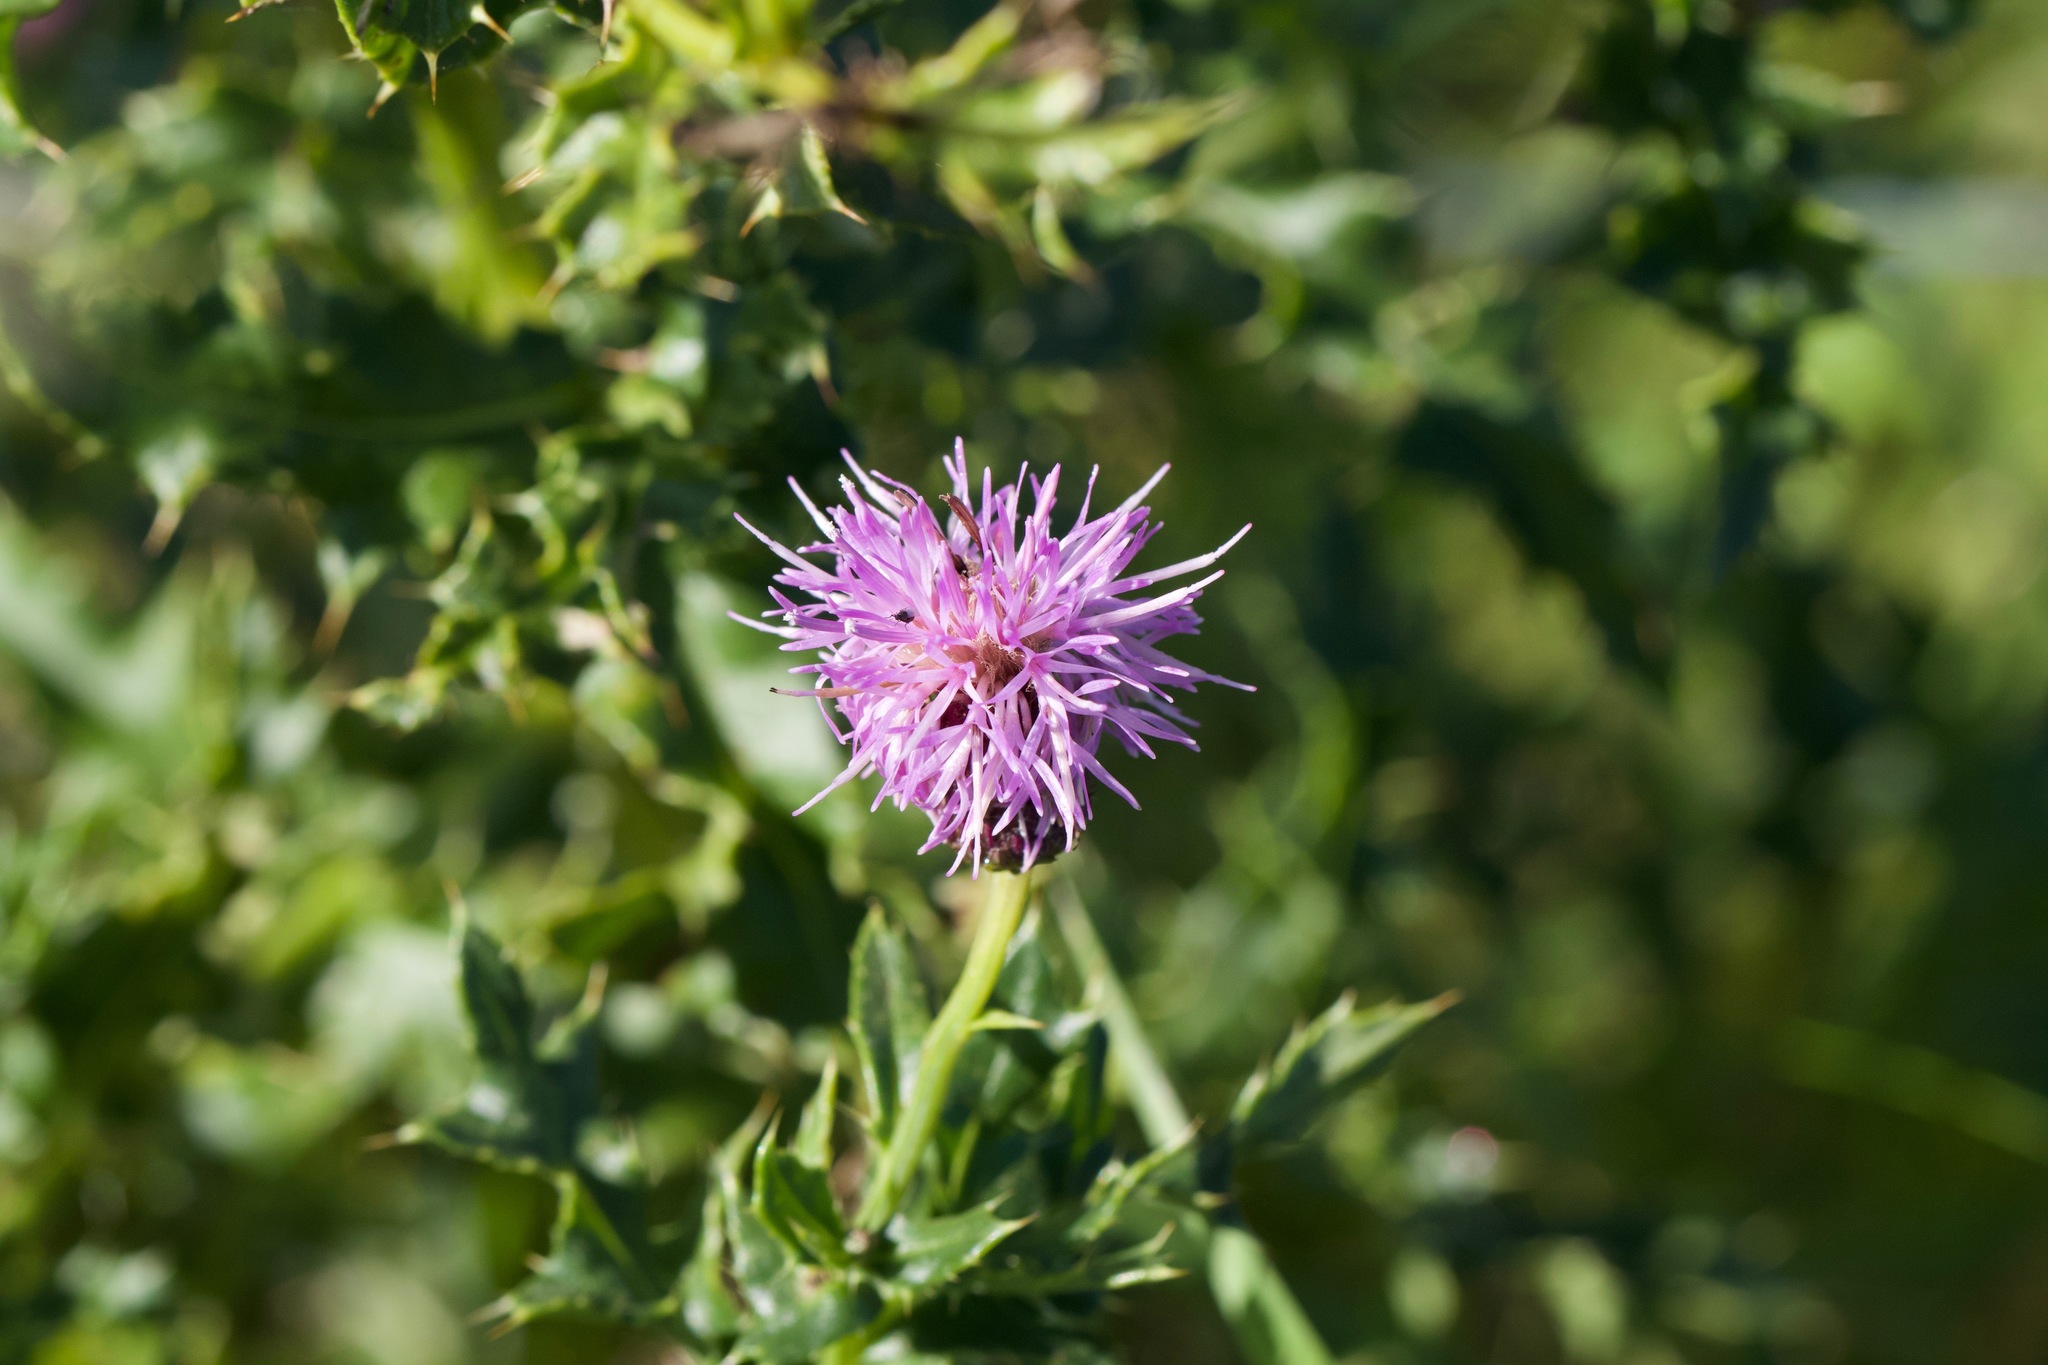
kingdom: Plantae
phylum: Tracheophyta
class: Magnoliopsida
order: Asterales
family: Asteraceae
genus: Cirsium
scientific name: Cirsium arvense
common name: Creeping thistle
